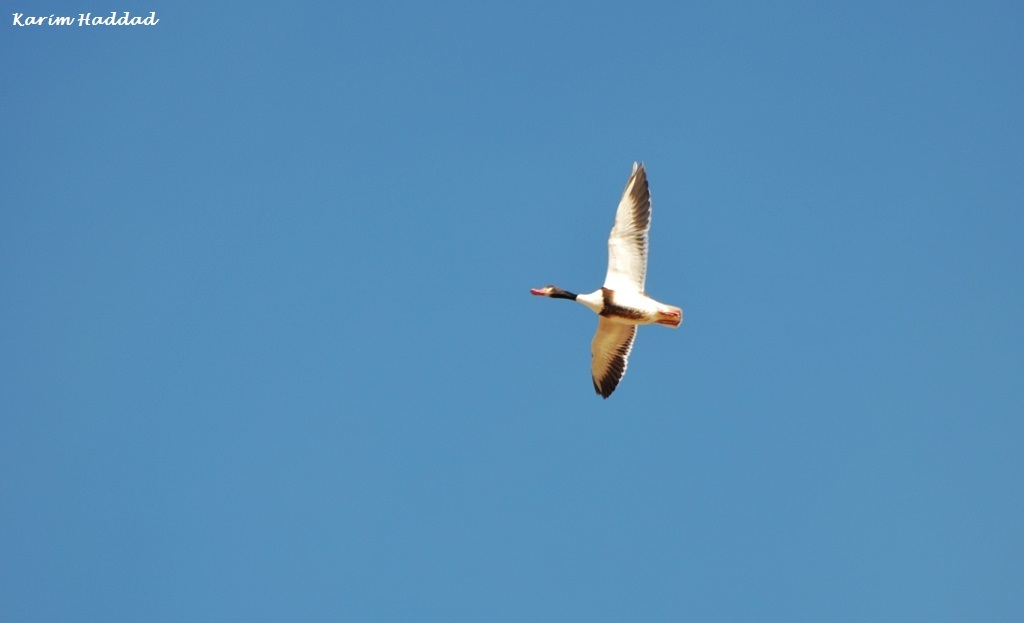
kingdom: Animalia
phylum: Chordata
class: Aves
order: Anseriformes
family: Anatidae
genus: Tadorna
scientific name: Tadorna tadorna
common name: Common shelduck
